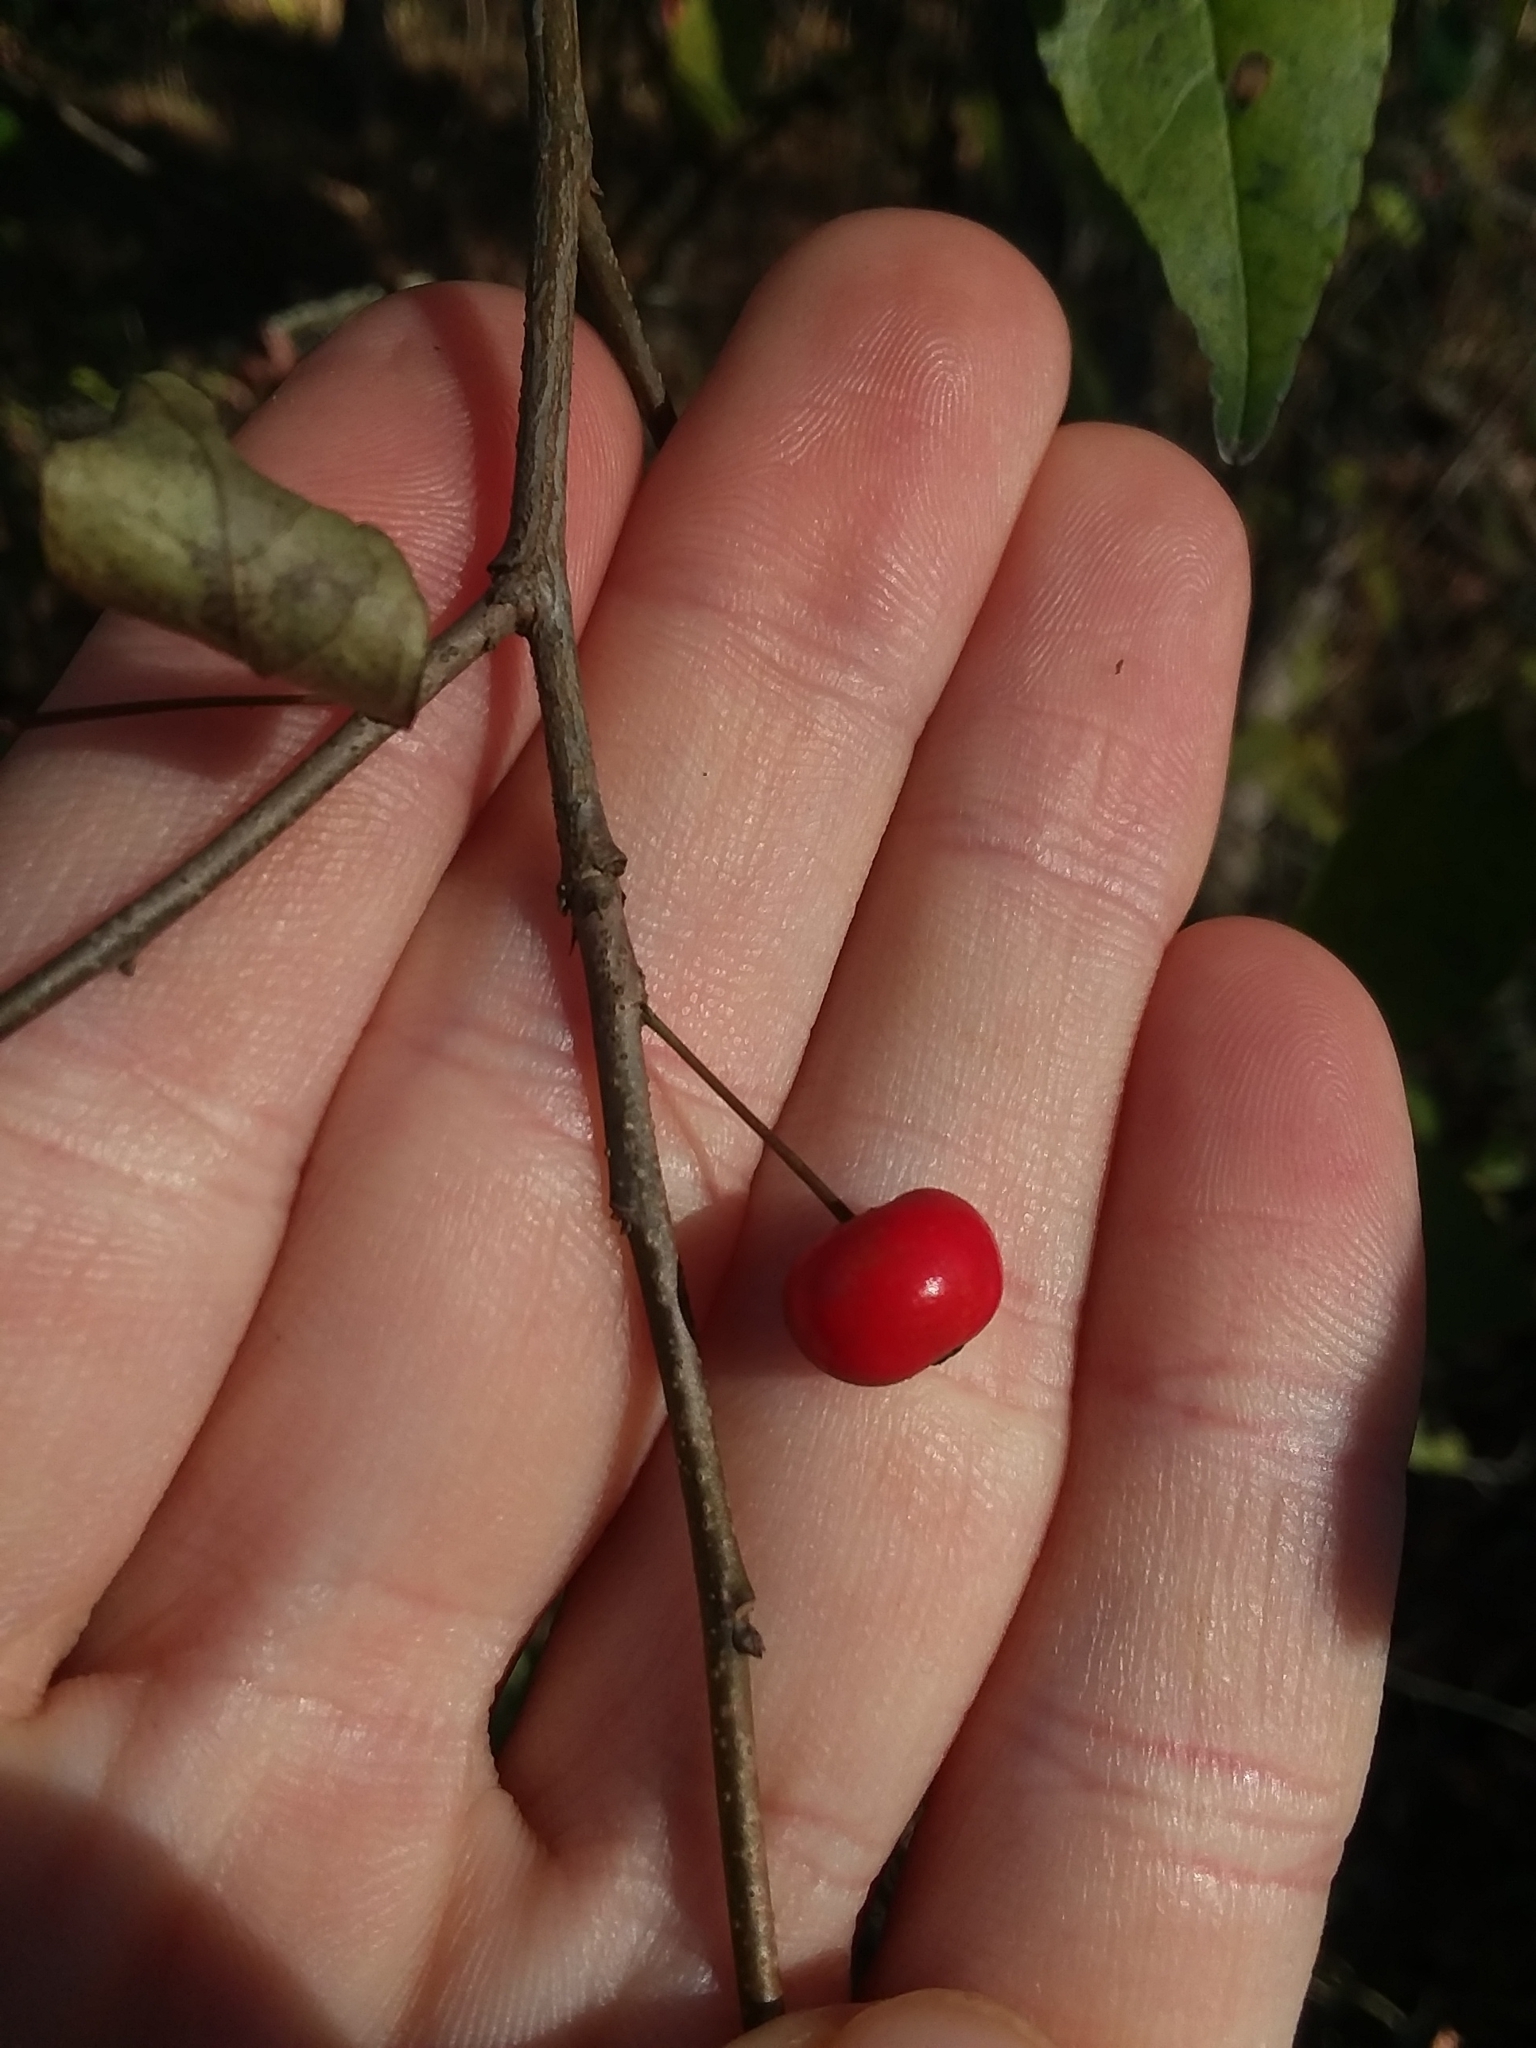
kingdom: Plantae
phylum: Tracheophyta
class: Magnoliopsida
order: Aquifoliales
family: Aquifoliaceae
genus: Ilex
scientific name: Ilex longipes
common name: Georgia holly
